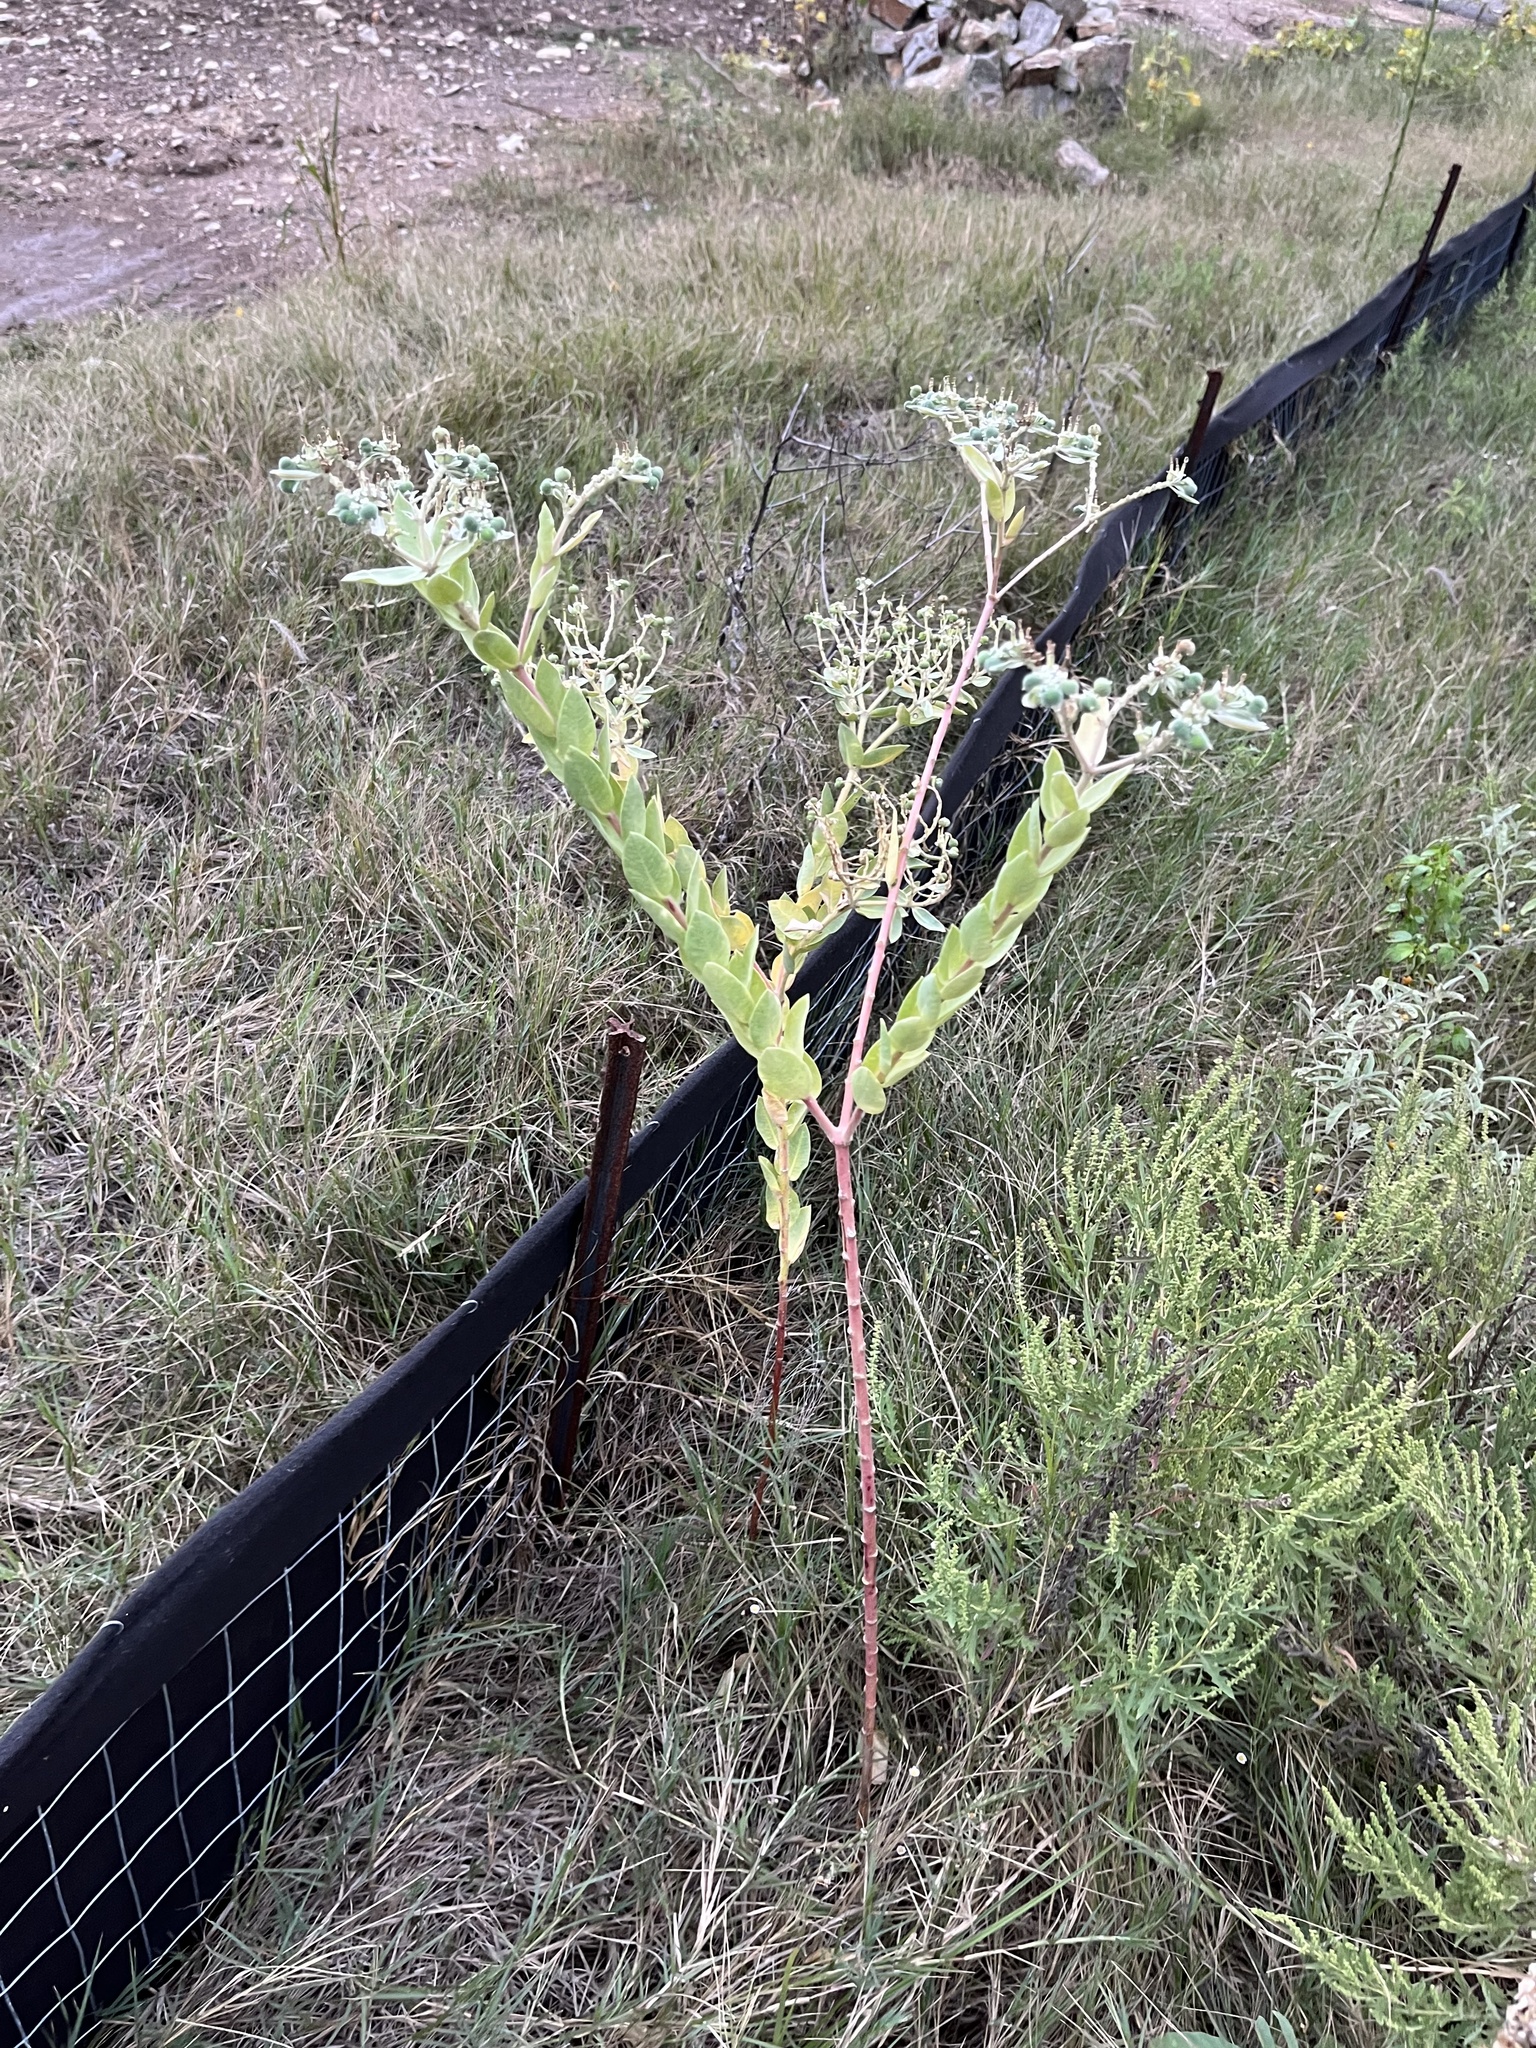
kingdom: Plantae
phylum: Tracheophyta
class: Magnoliopsida
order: Malpighiales
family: Euphorbiaceae
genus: Euphorbia
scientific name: Euphorbia marginata
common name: Ghostweed
